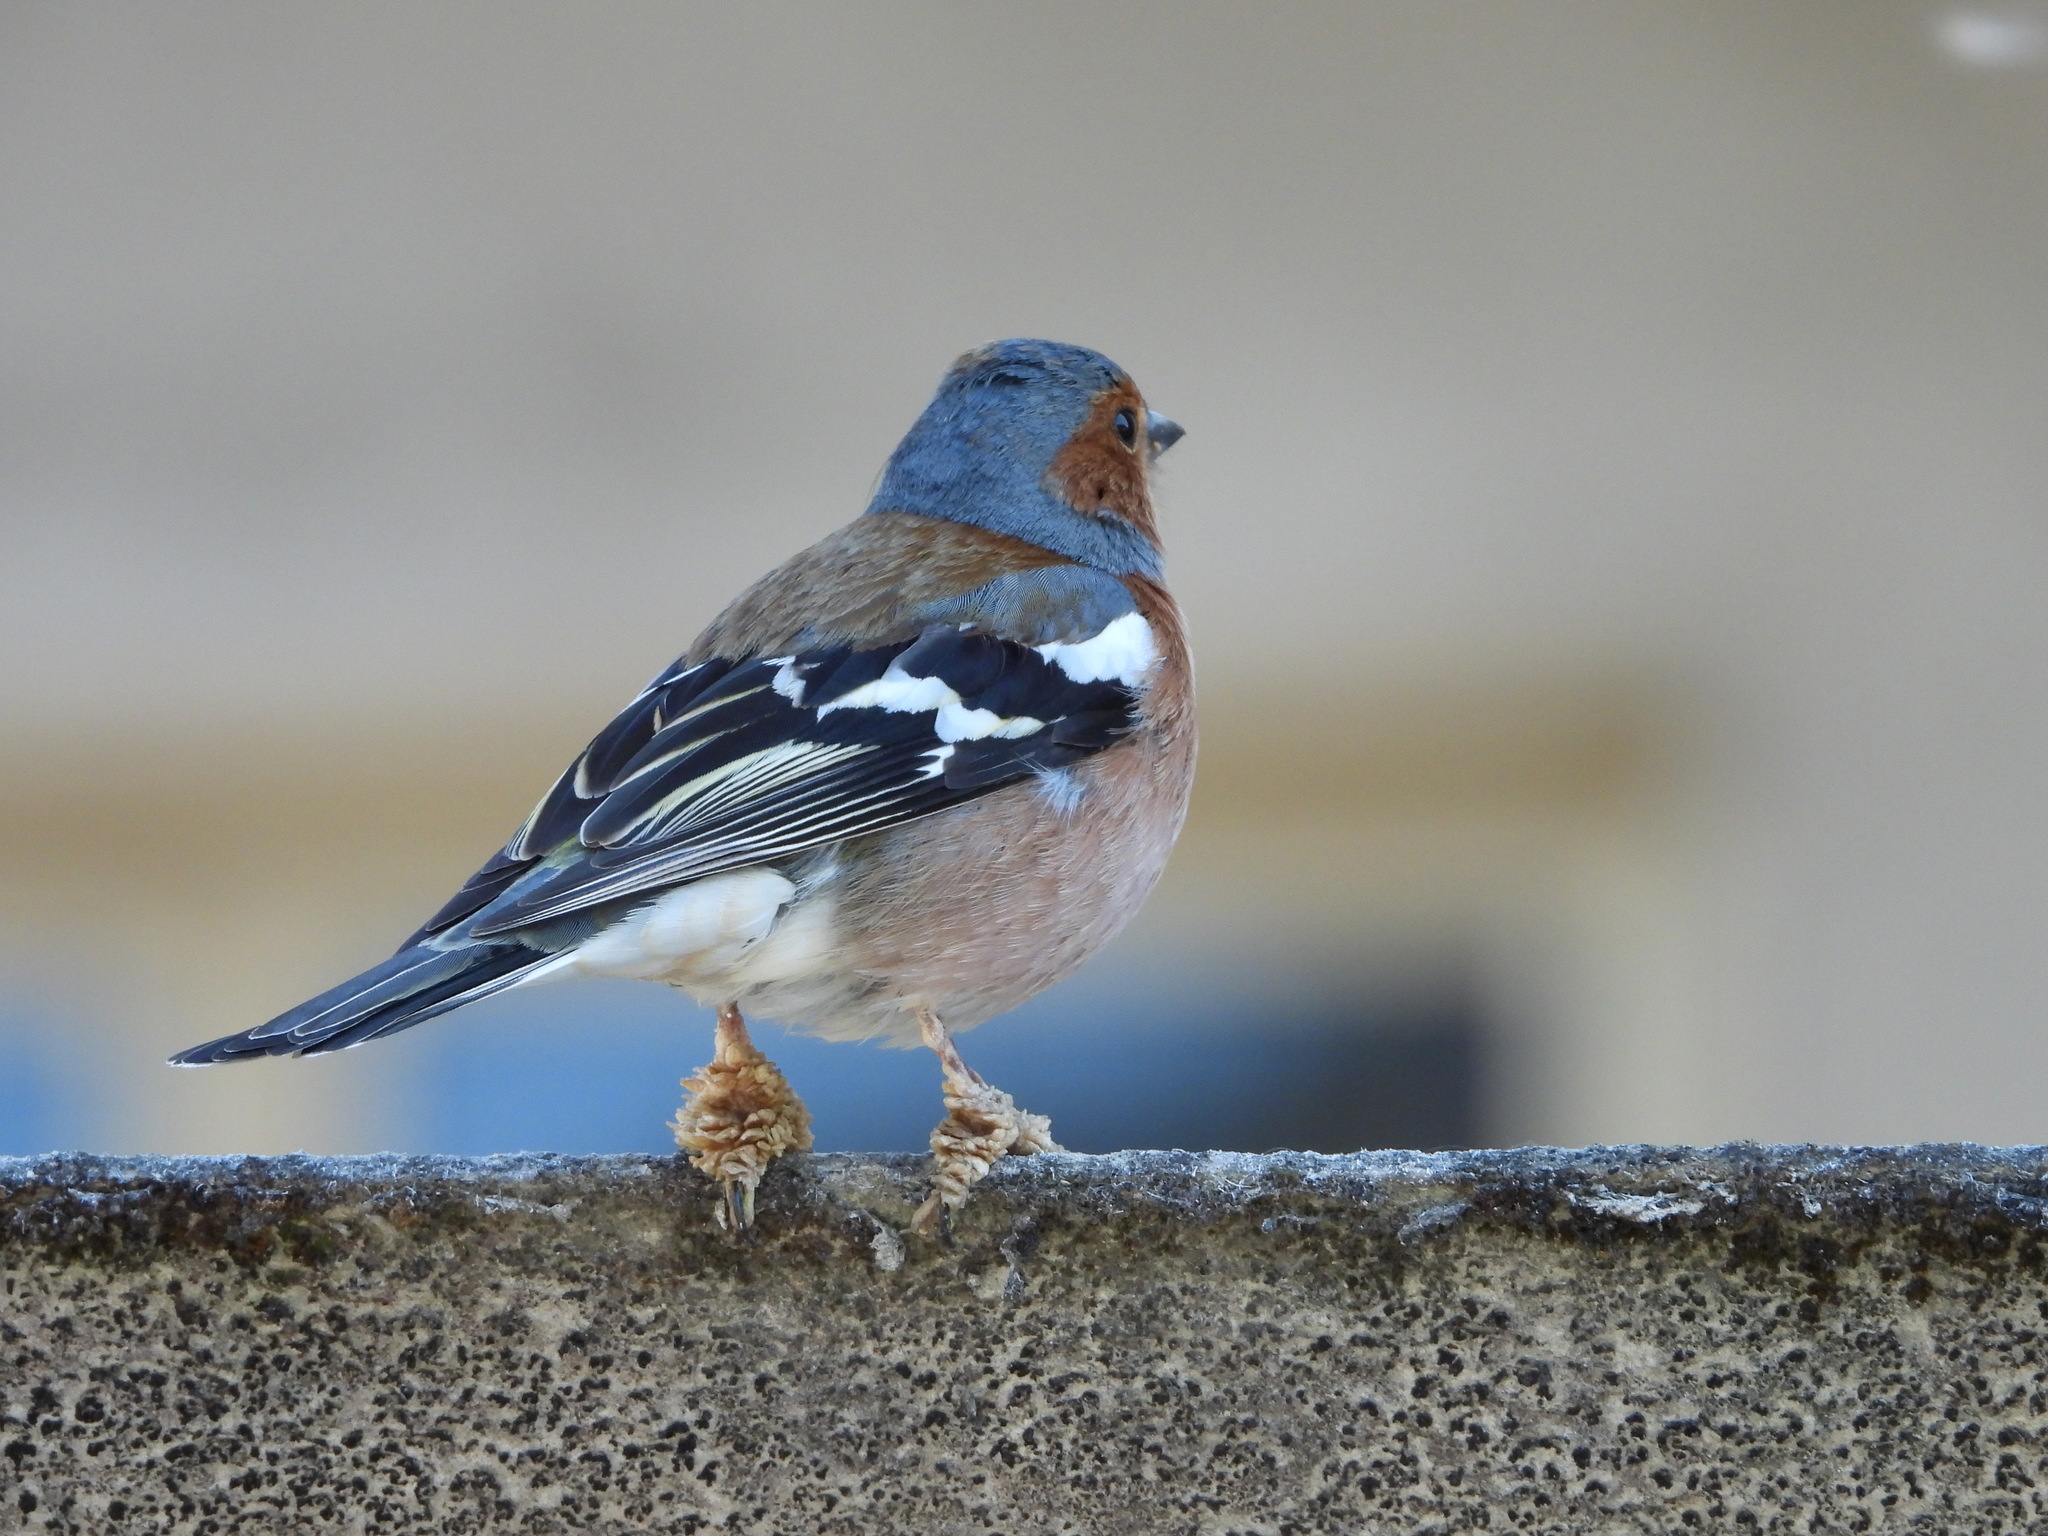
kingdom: Animalia
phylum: Chordata
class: Aves
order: Passeriformes
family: Fringillidae
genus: Fringilla
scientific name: Fringilla coelebs
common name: Common chaffinch
